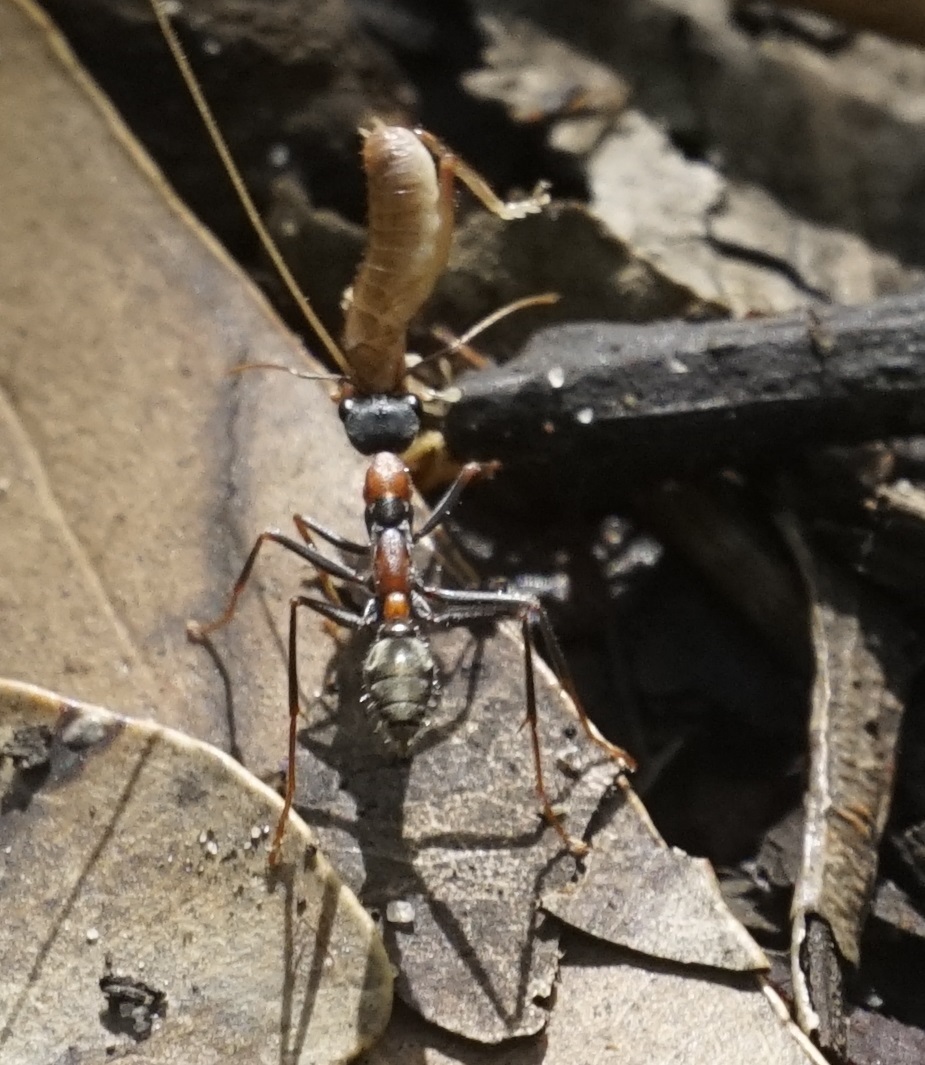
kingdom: Animalia
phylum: Arthropoda
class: Insecta
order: Hymenoptera
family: Formicidae
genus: Myrmecia
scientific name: Myrmecia nigrocincta
